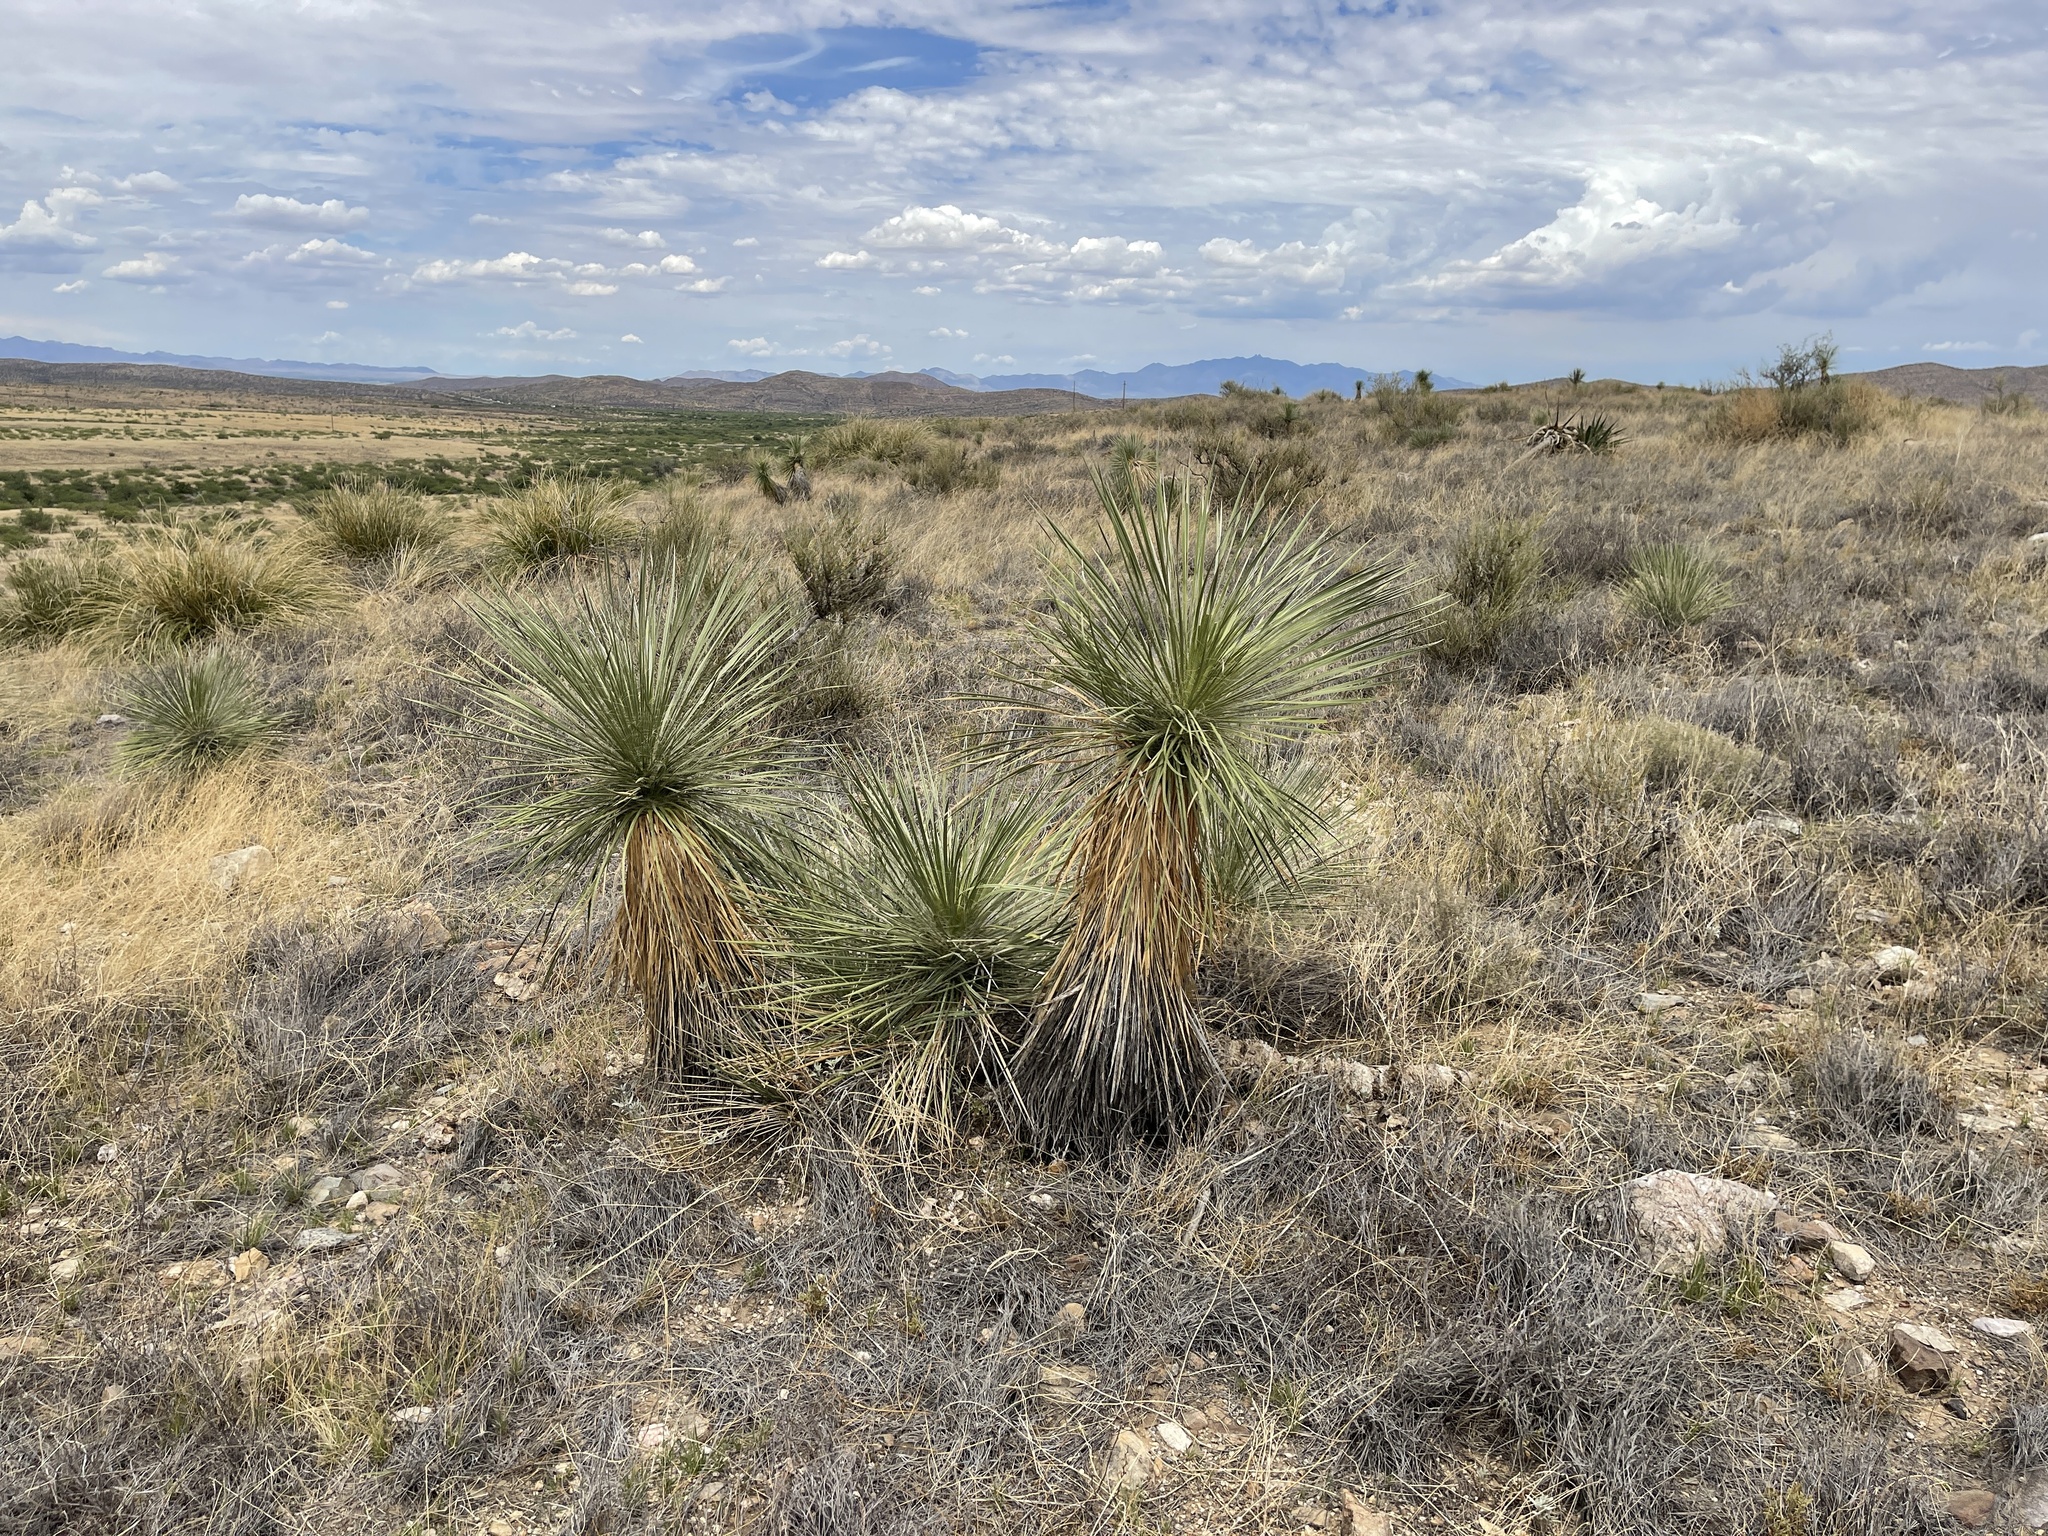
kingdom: Plantae
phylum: Tracheophyta
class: Liliopsida
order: Asparagales
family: Asparagaceae
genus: Yucca
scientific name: Yucca elata
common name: Palmella
